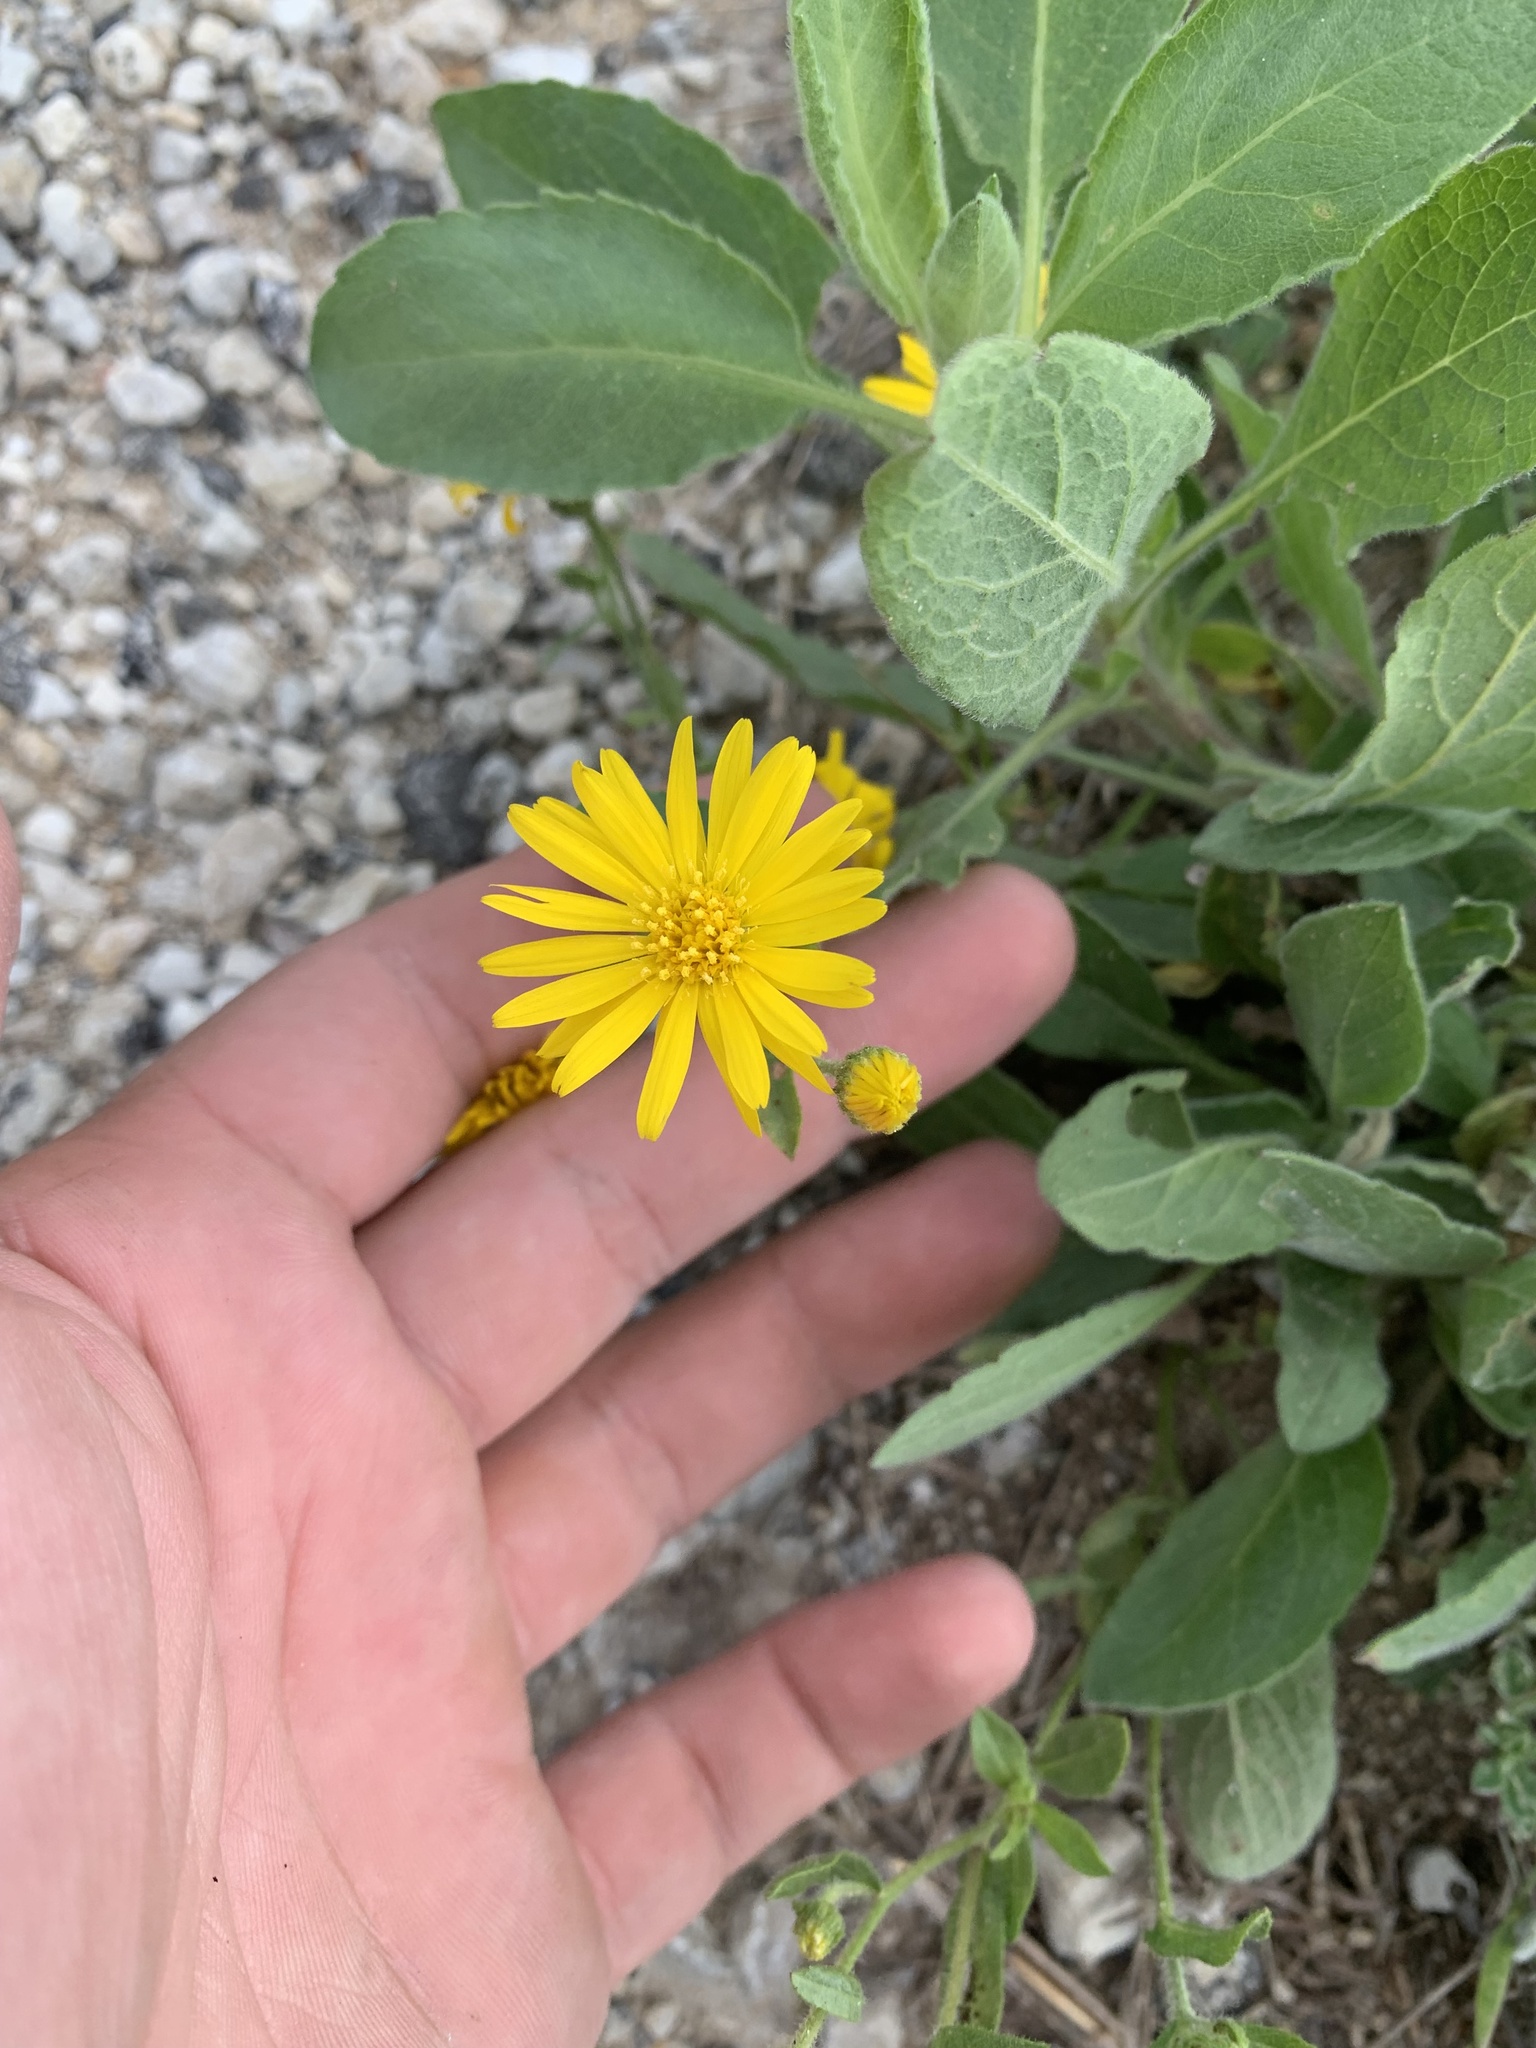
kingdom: Plantae
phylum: Tracheophyta
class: Magnoliopsida
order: Asterales
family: Asteraceae
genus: Heterotheca
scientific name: Heterotheca subaxillaris
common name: Camphorweed
